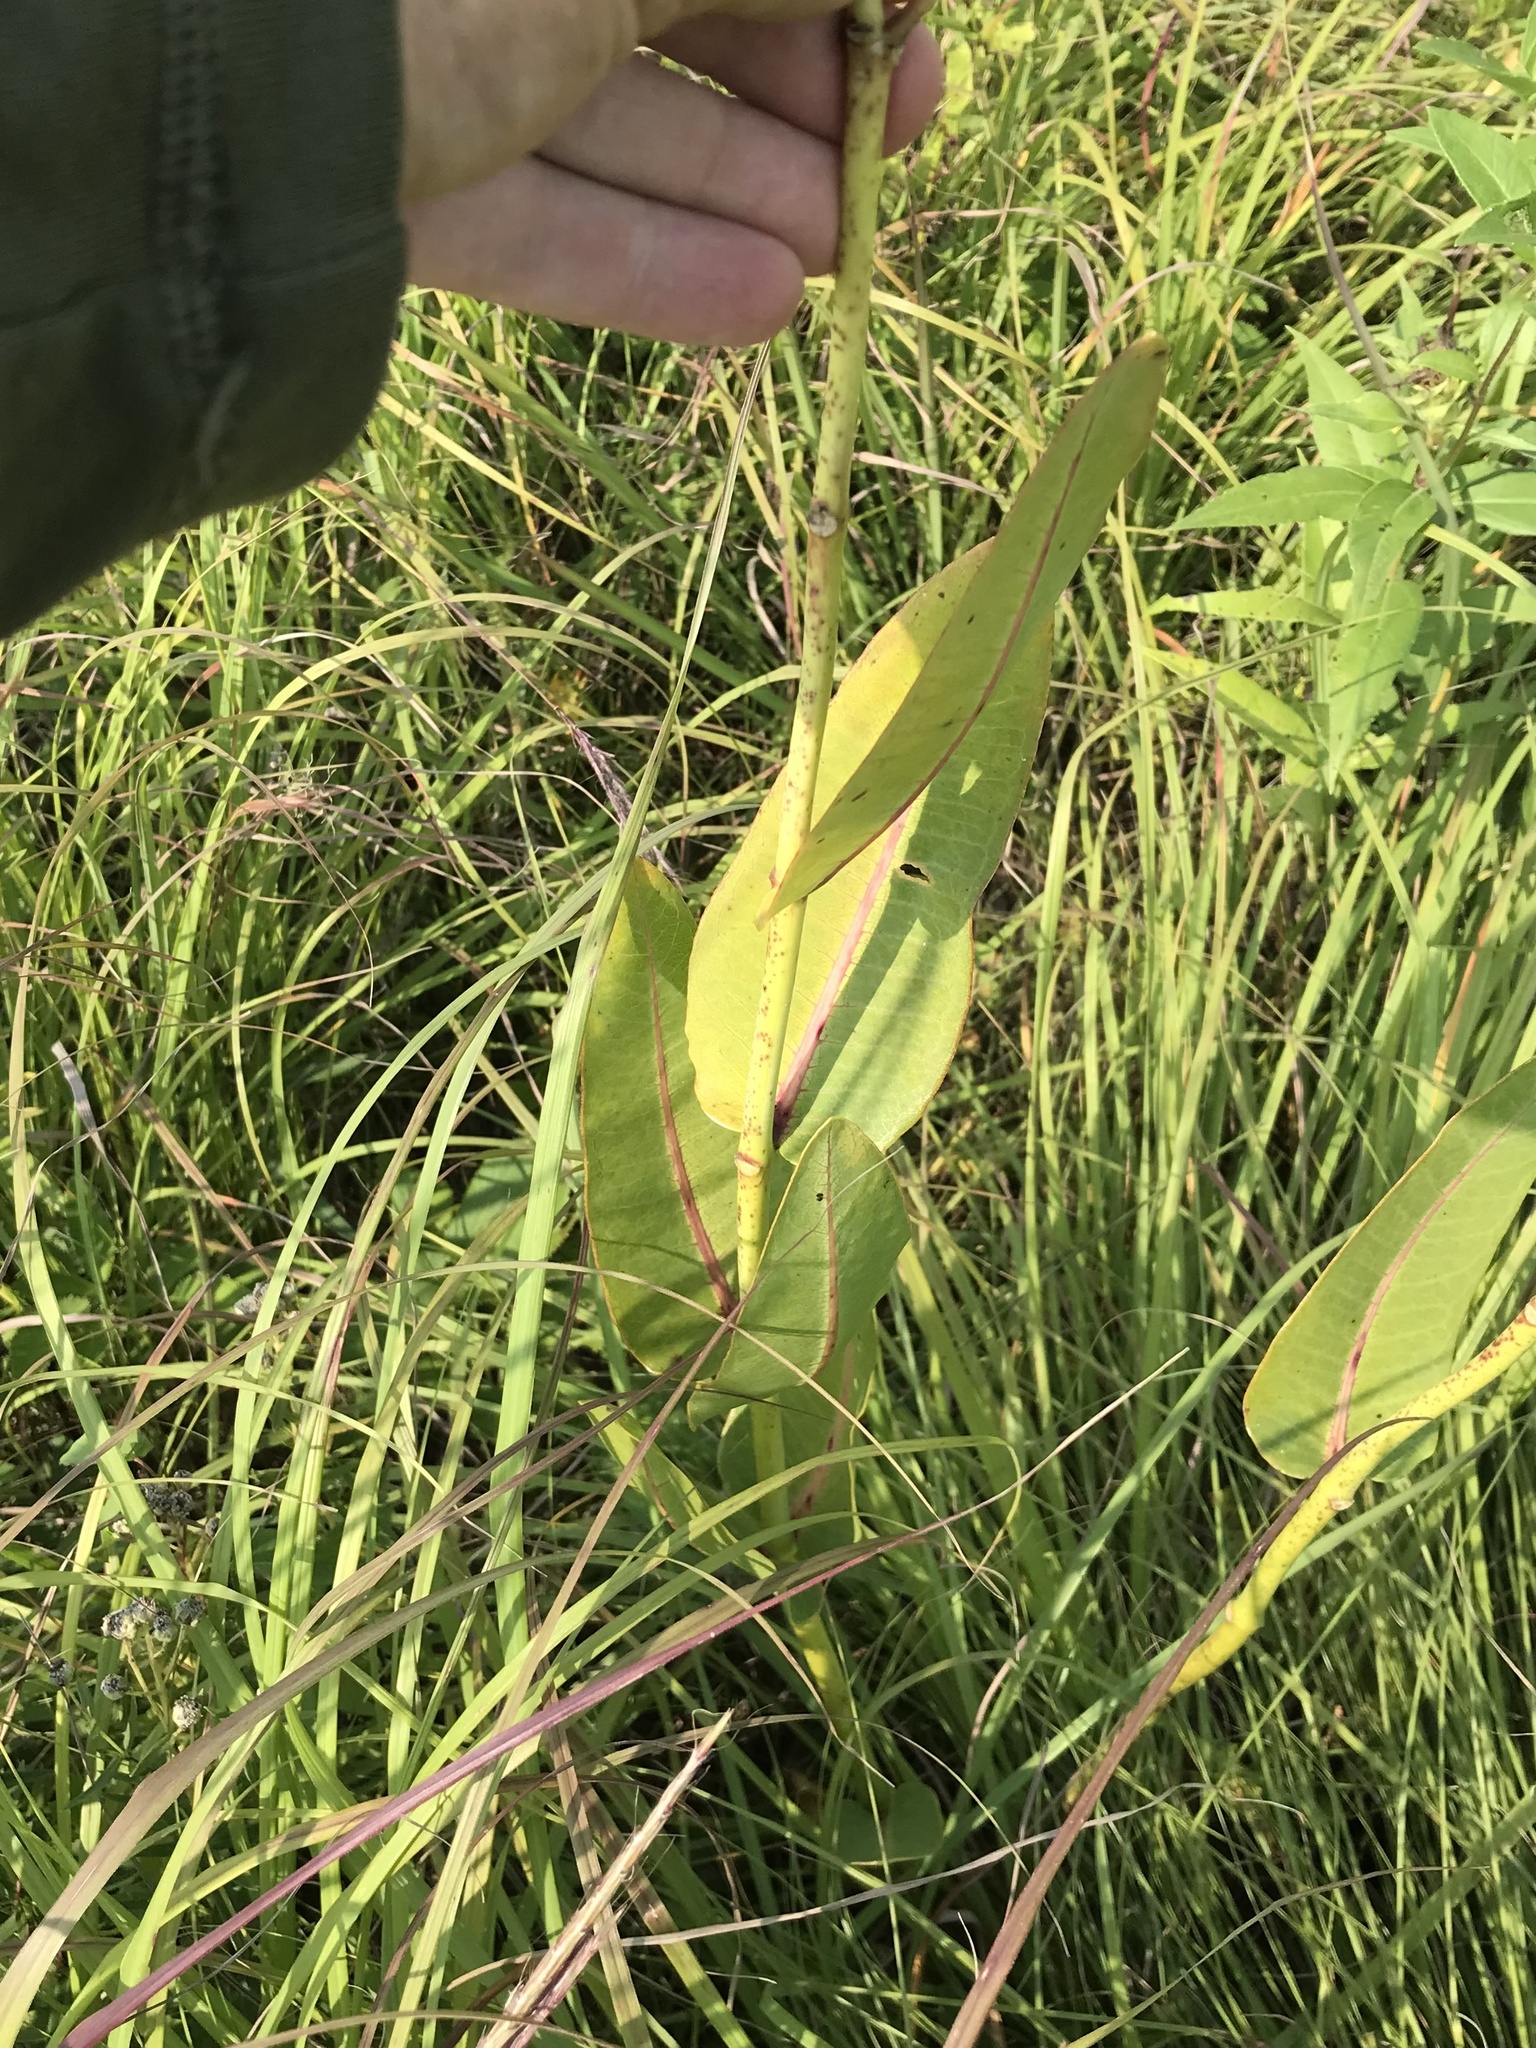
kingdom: Plantae
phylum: Tracheophyta
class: Magnoliopsida
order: Gentianales
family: Apocynaceae
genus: Asclepias
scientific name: Asclepias sullivantii
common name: Prairie milkweed
